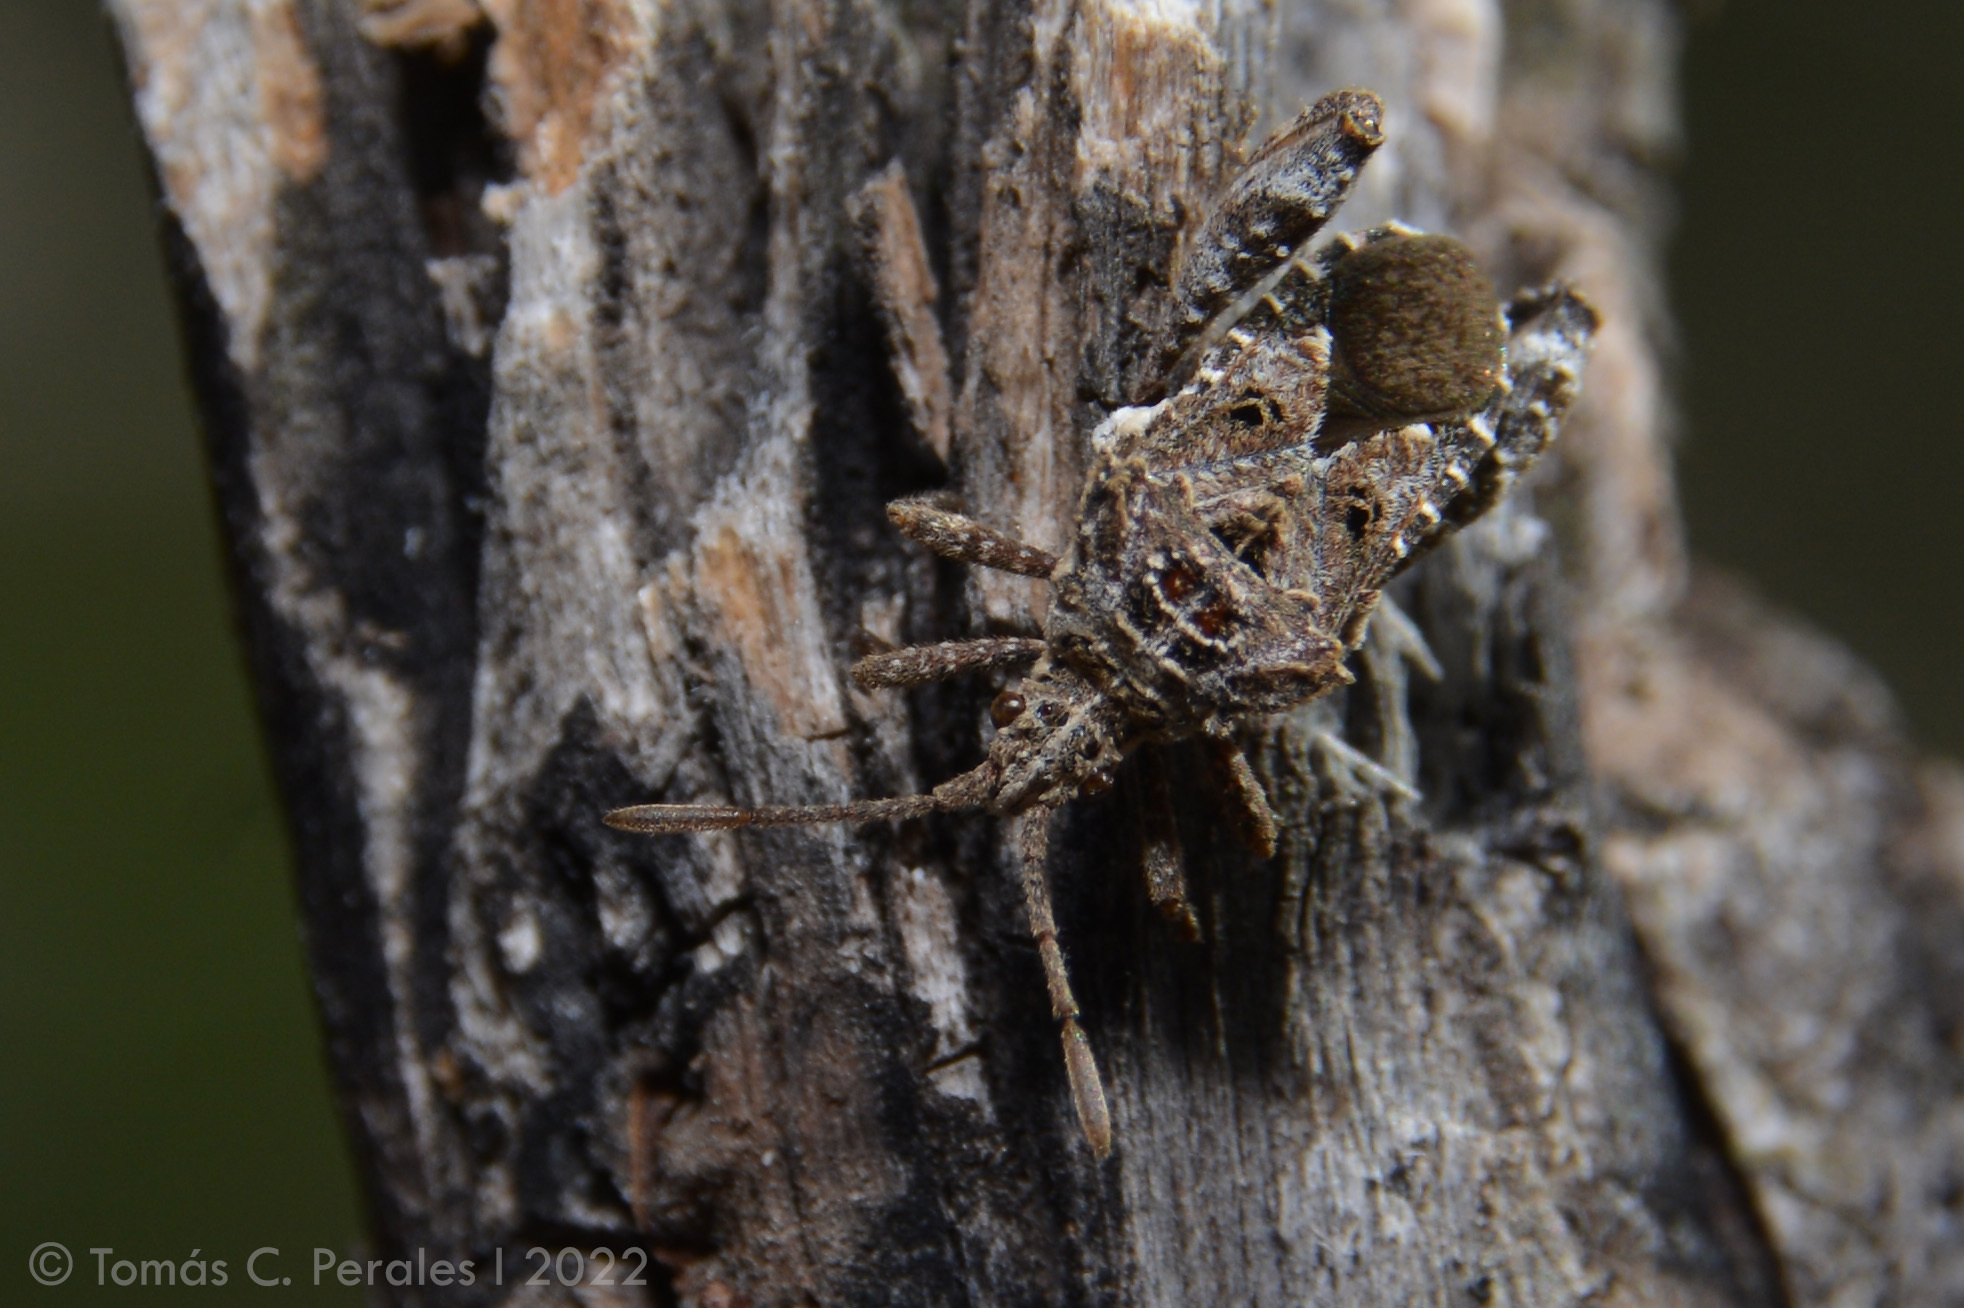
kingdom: Animalia
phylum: Arthropoda
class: Insecta
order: Hemiptera
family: Coreidae
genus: Merocoris
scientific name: Merocoris bergi
